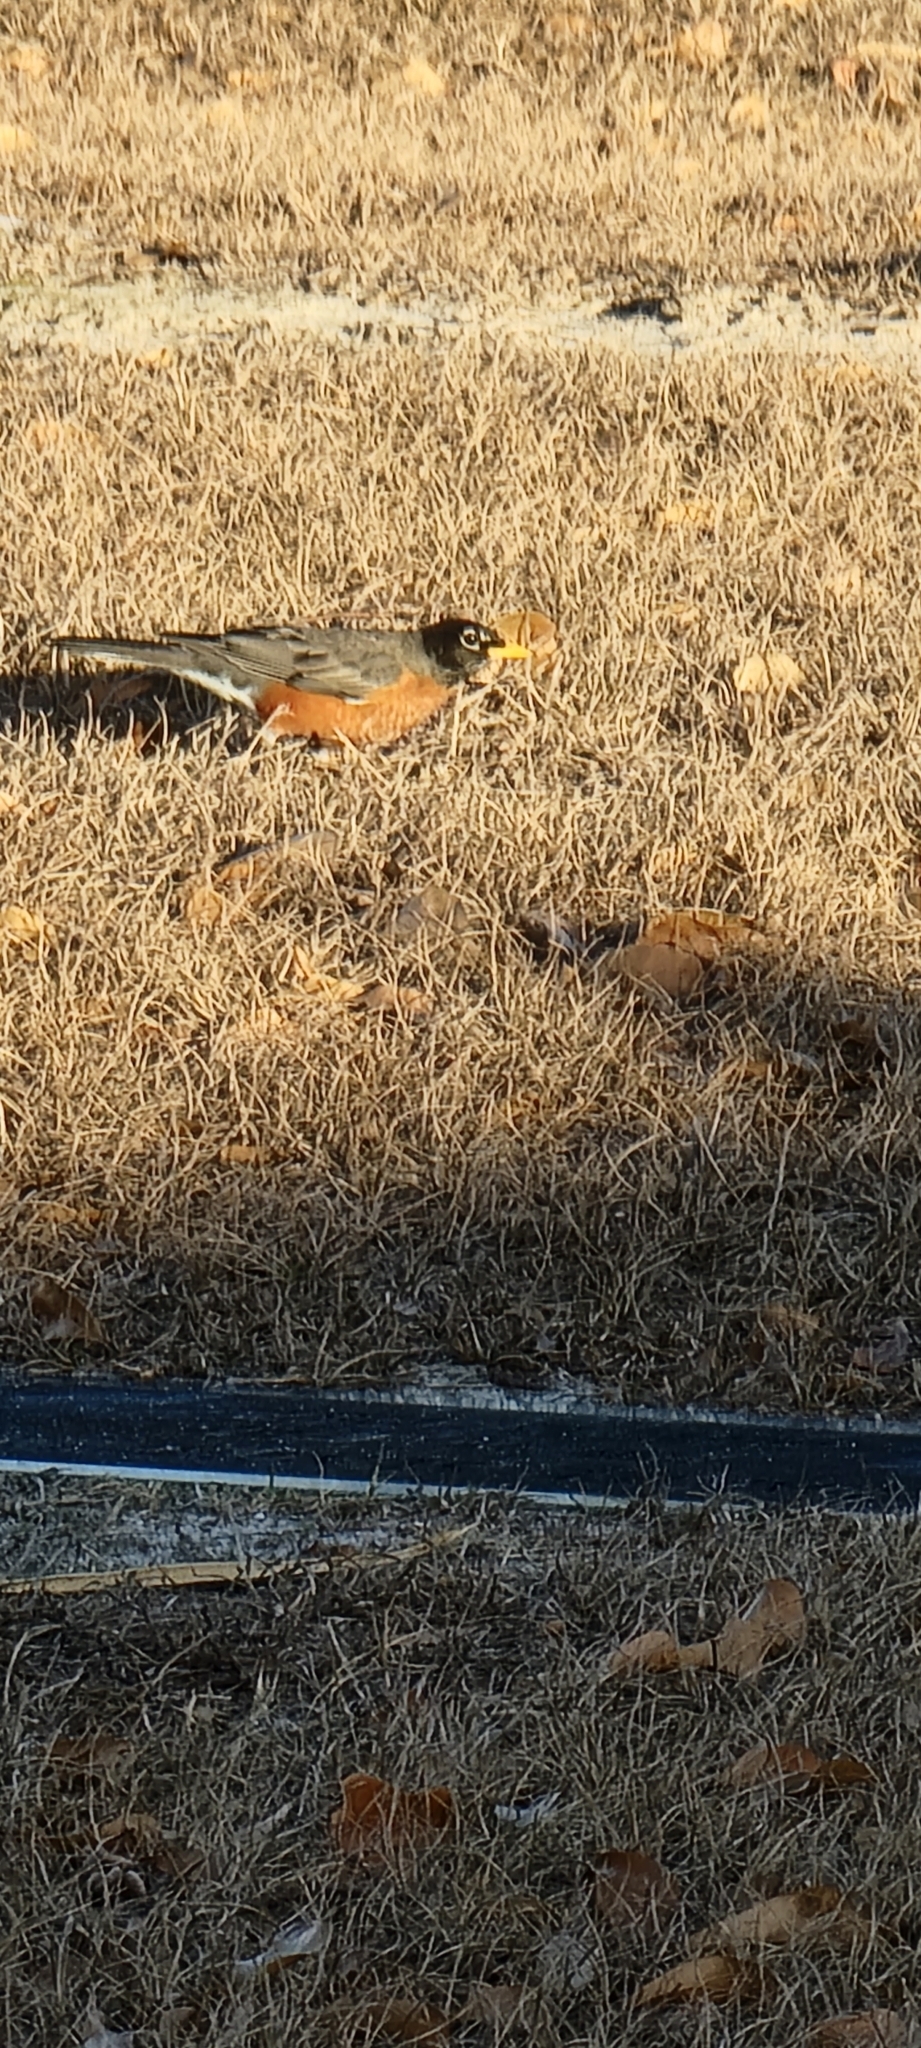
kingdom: Animalia
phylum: Chordata
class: Aves
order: Passeriformes
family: Turdidae
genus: Turdus
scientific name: Turdus migratorius
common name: American robin
